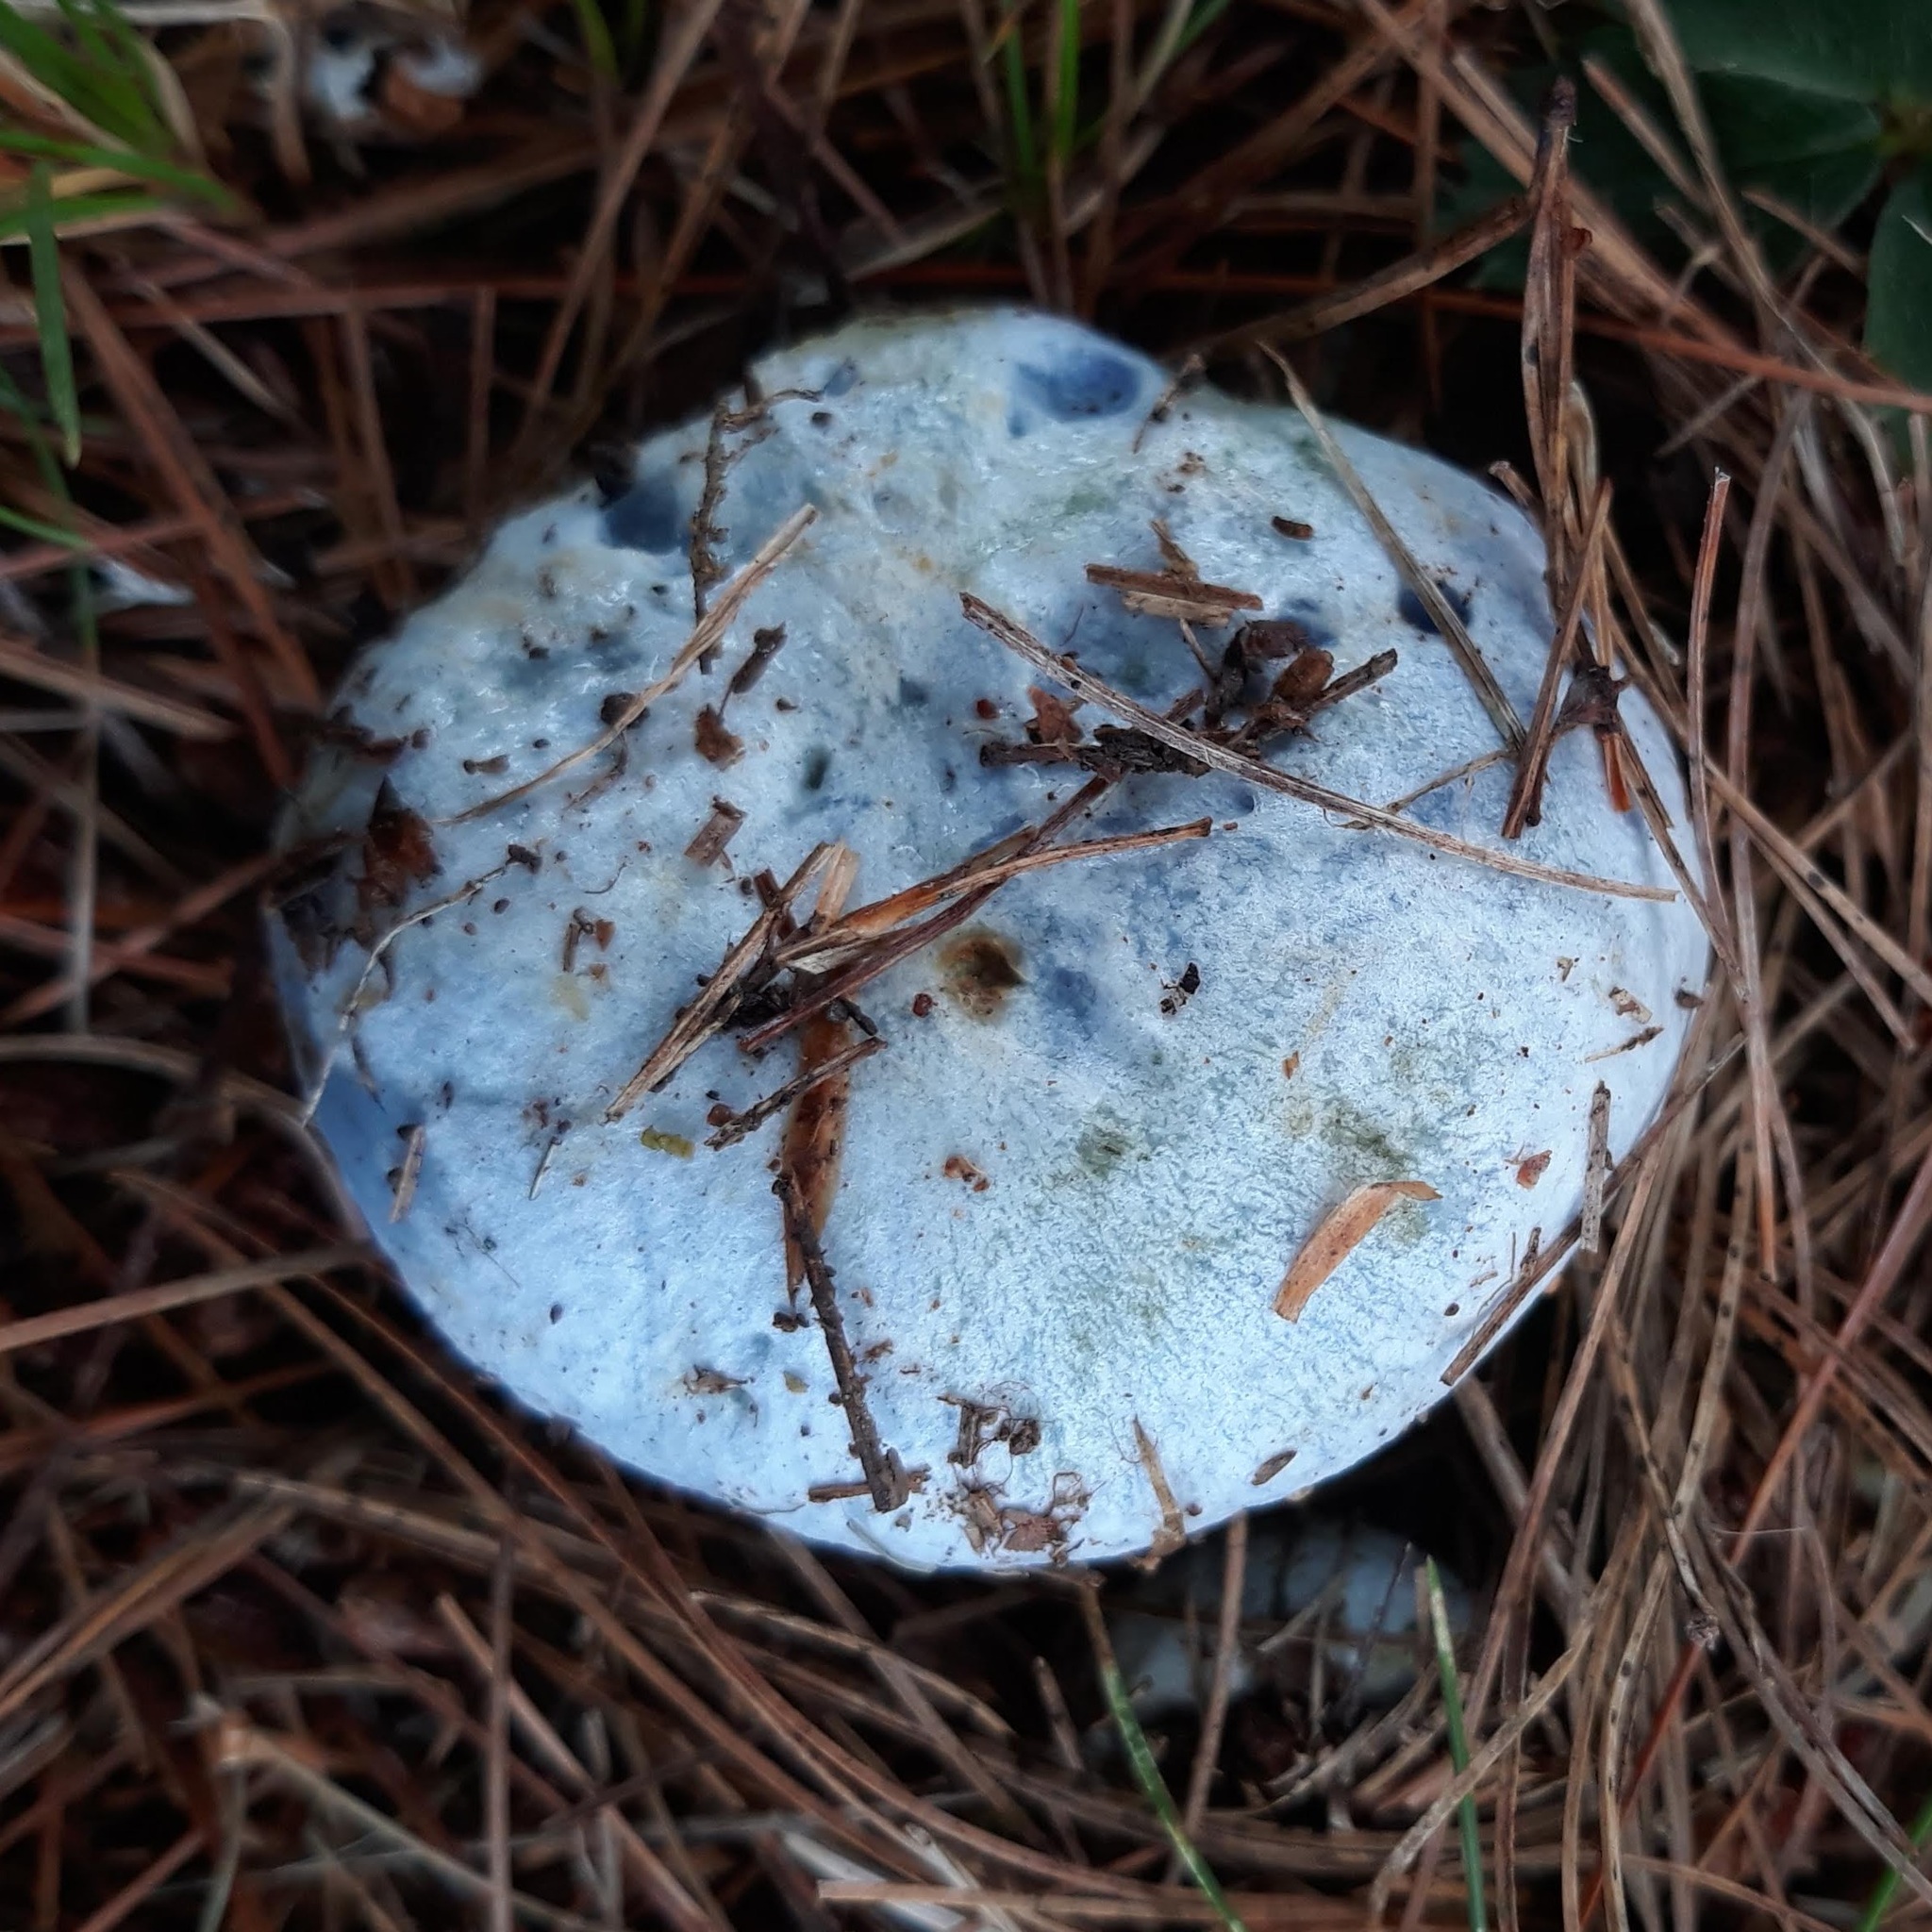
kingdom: Fungi
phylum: Basidiomycota
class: Agaricomycetes
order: Russulales
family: Russulaceae
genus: Lactarius
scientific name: Lactarius indigo
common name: Indigo milk cap
